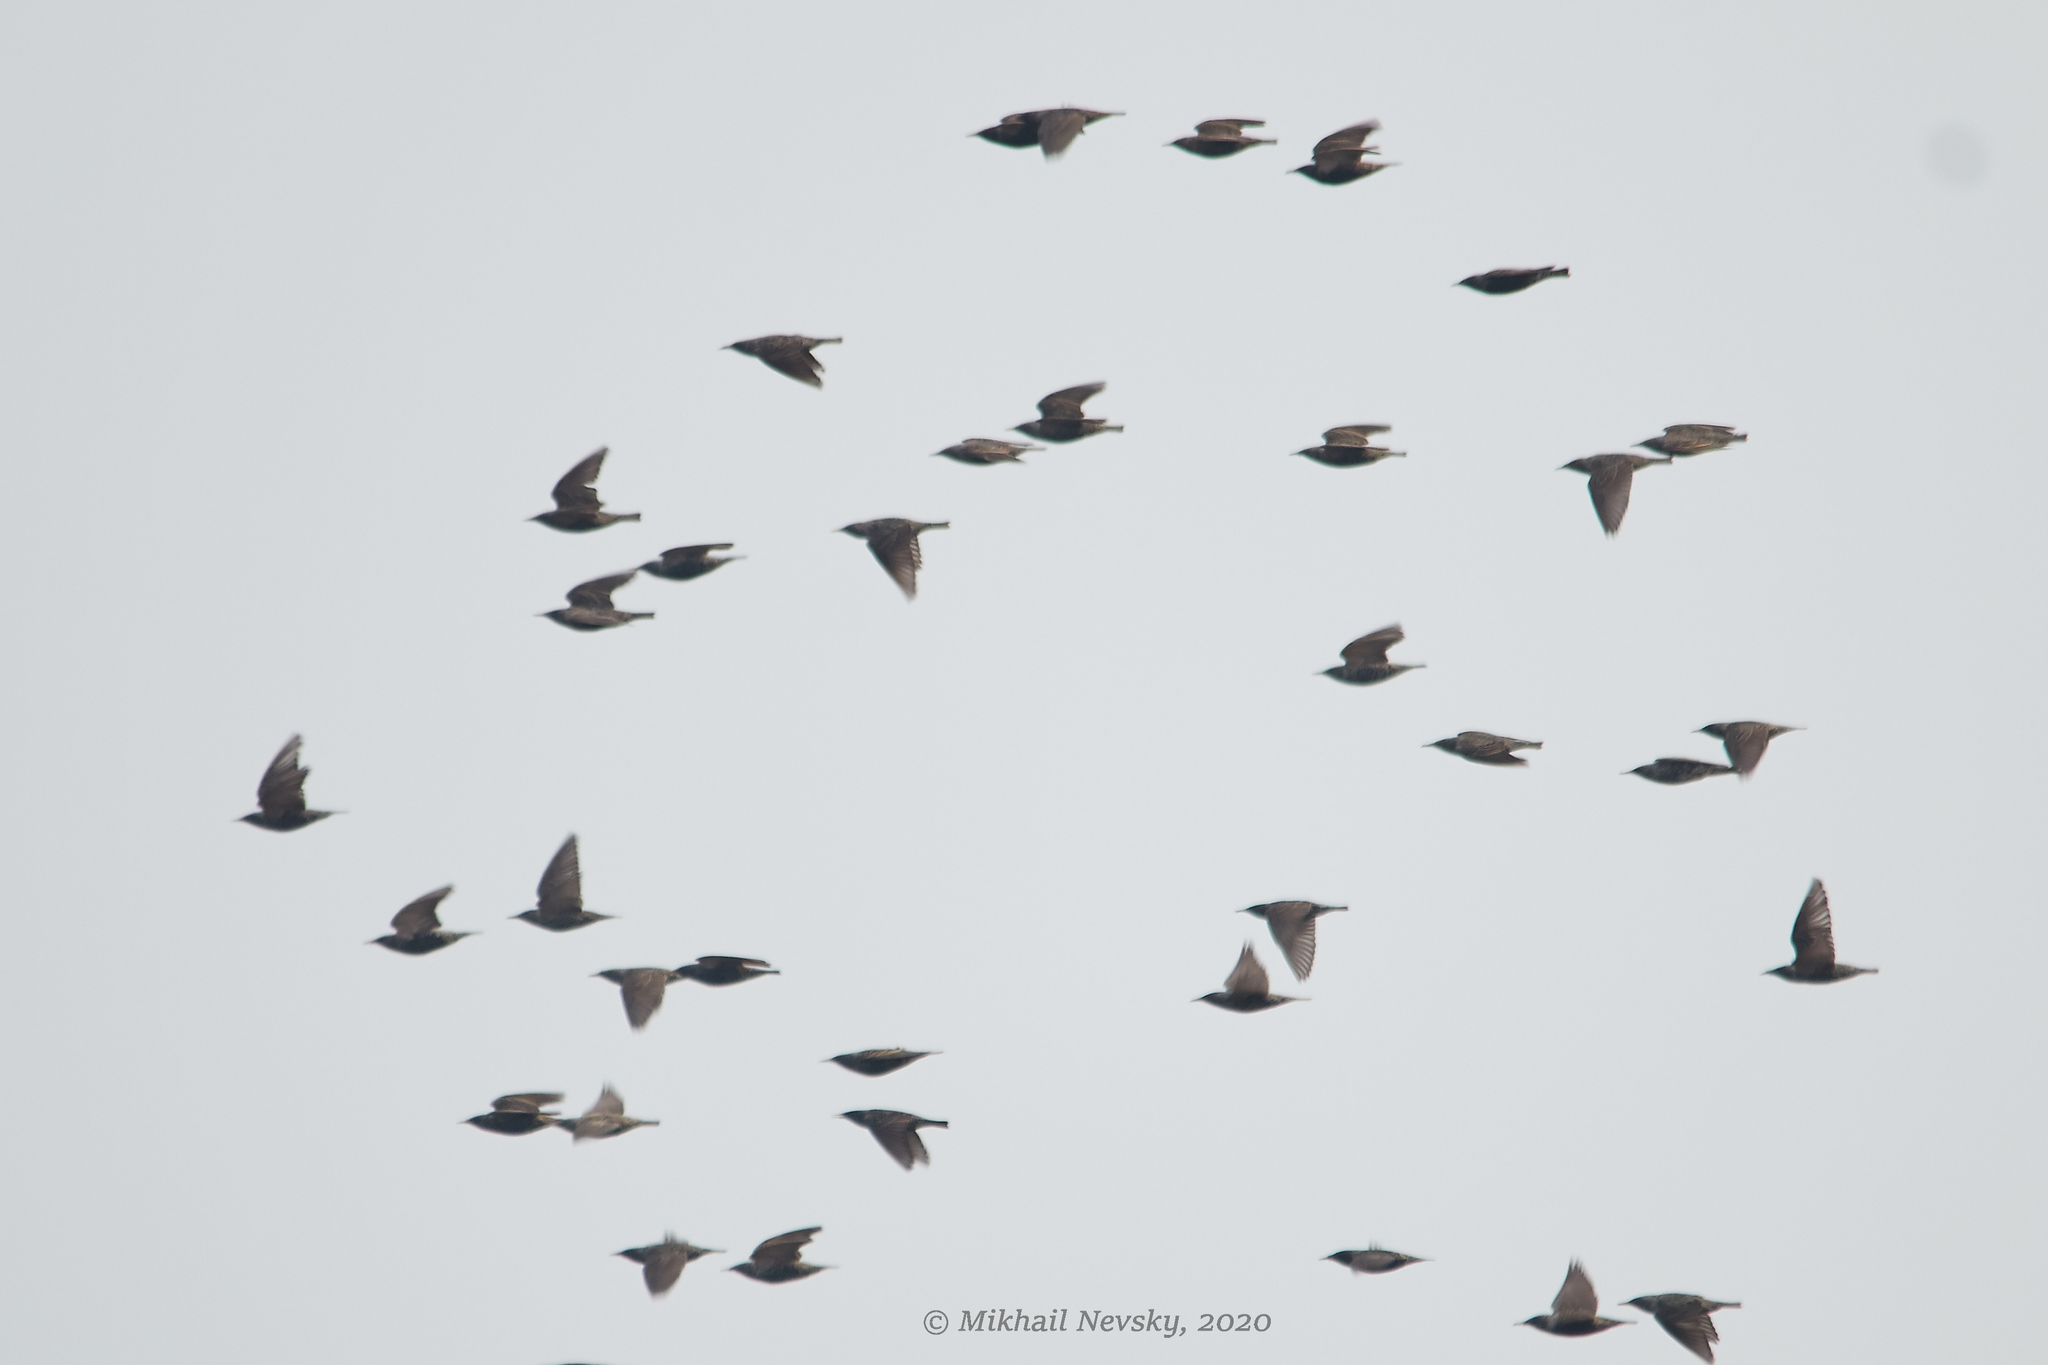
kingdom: Animalia
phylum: Chordata
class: Aves
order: Passeriformes
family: Sturnidae
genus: Sturnus
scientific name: Sturnus vulgaris
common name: Common starling
